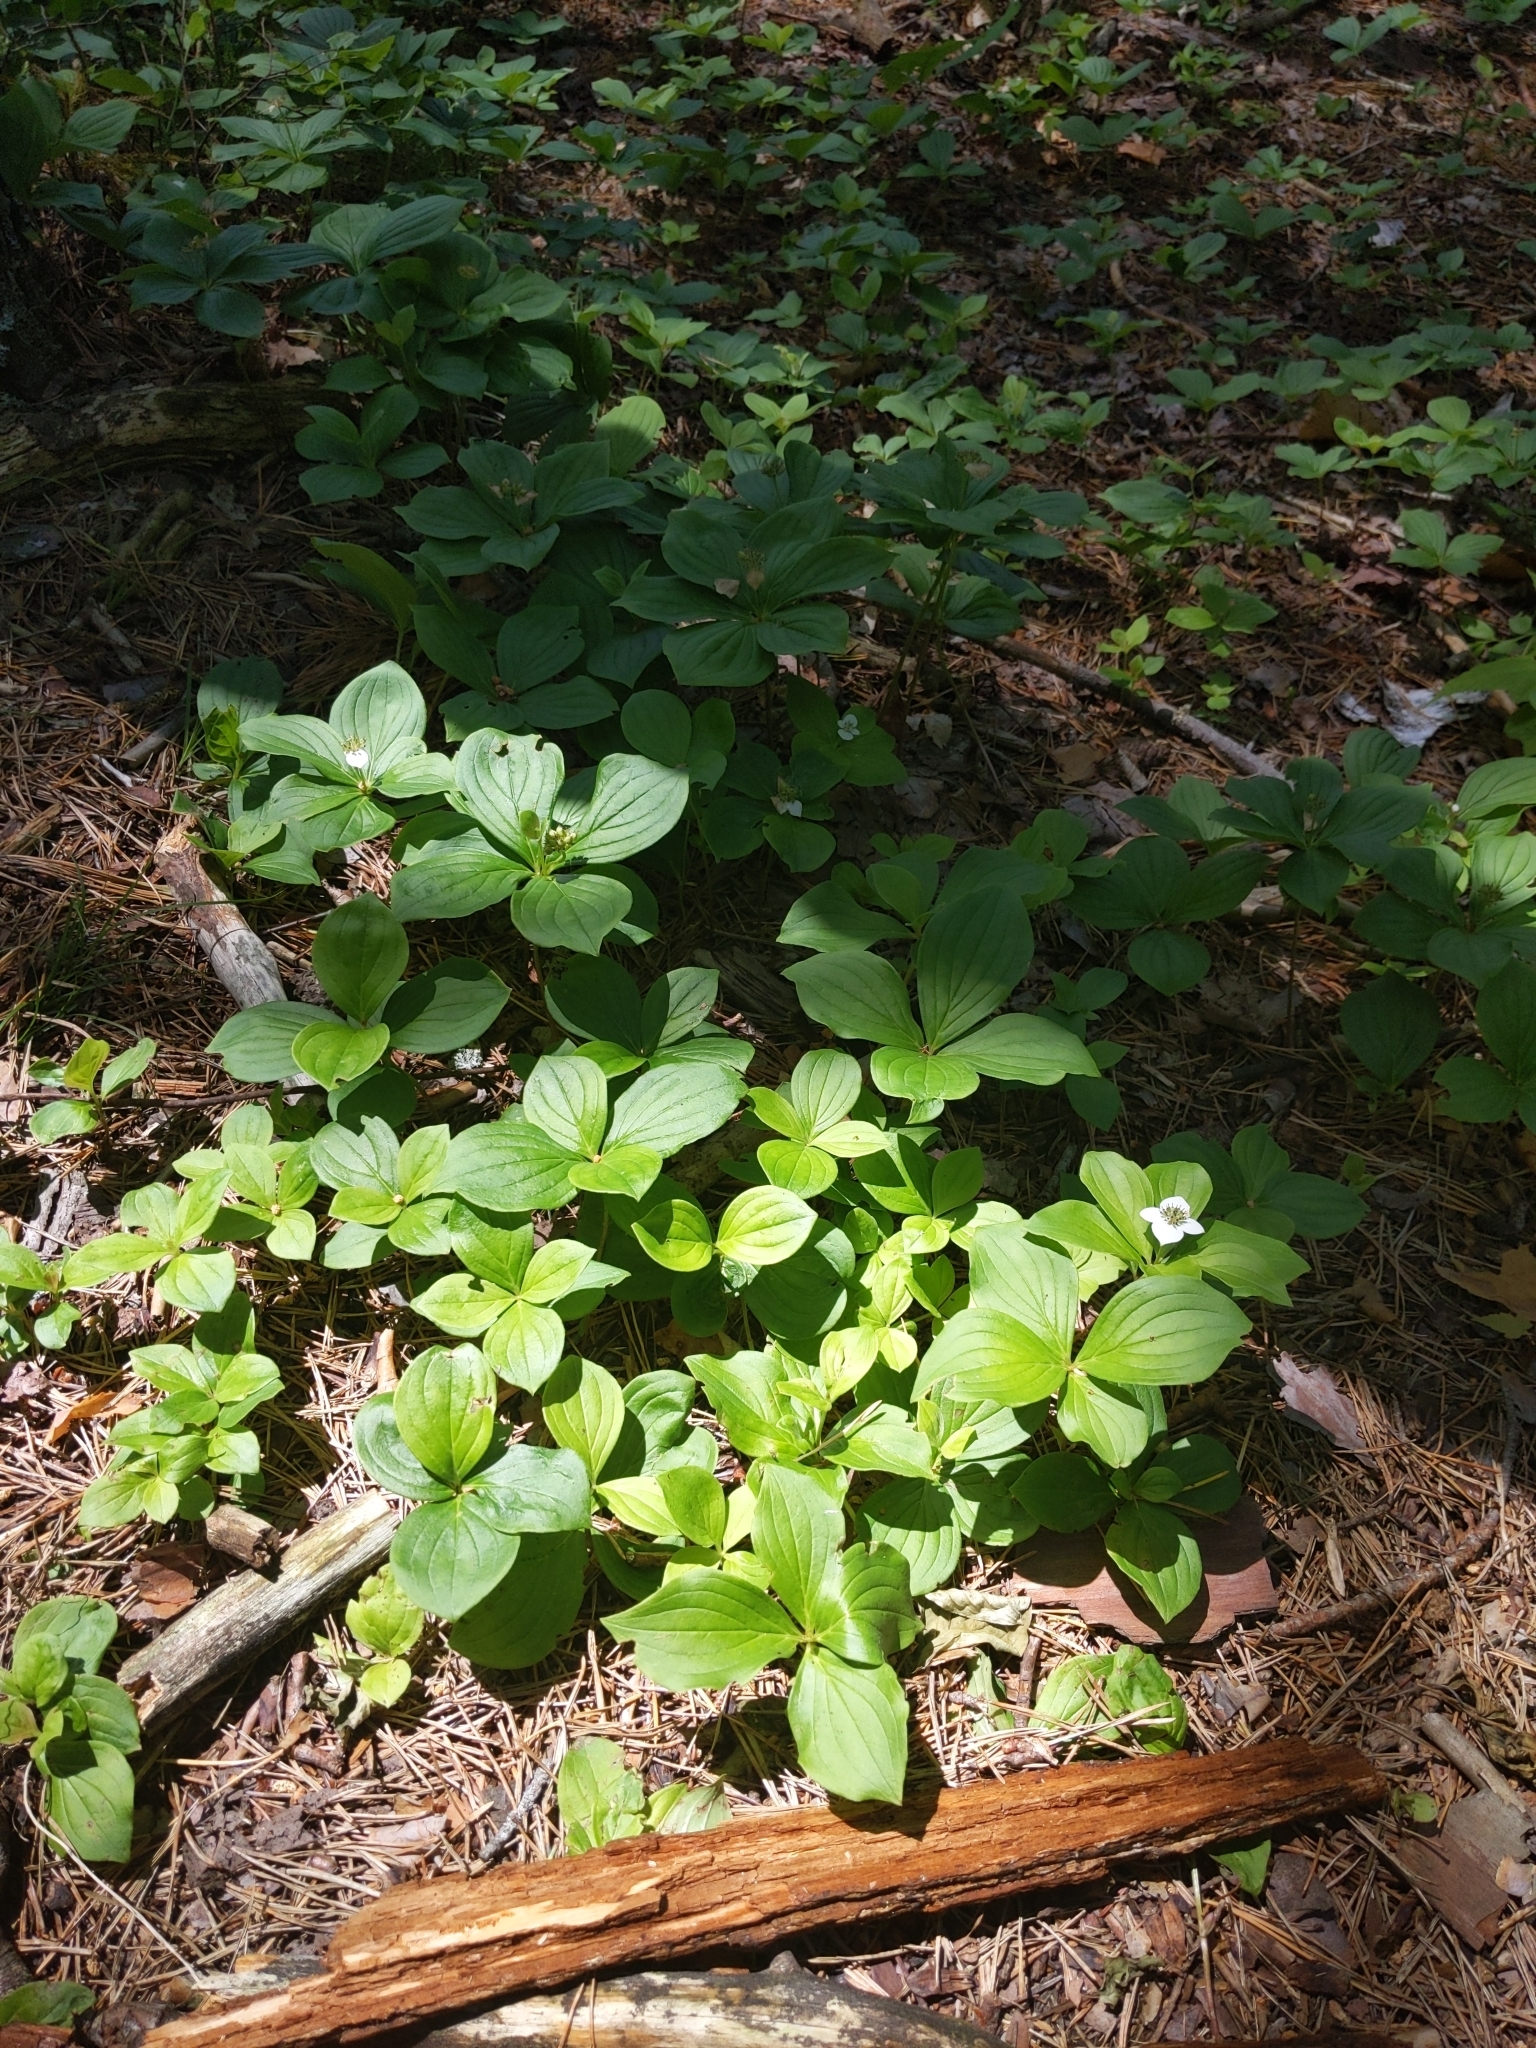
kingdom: Plantae
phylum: Tracheophyta
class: Magnoliopsida
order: Cornales
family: Cornaceae
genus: Cornus
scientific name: Cornus canadensis
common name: Creeping dogwood
